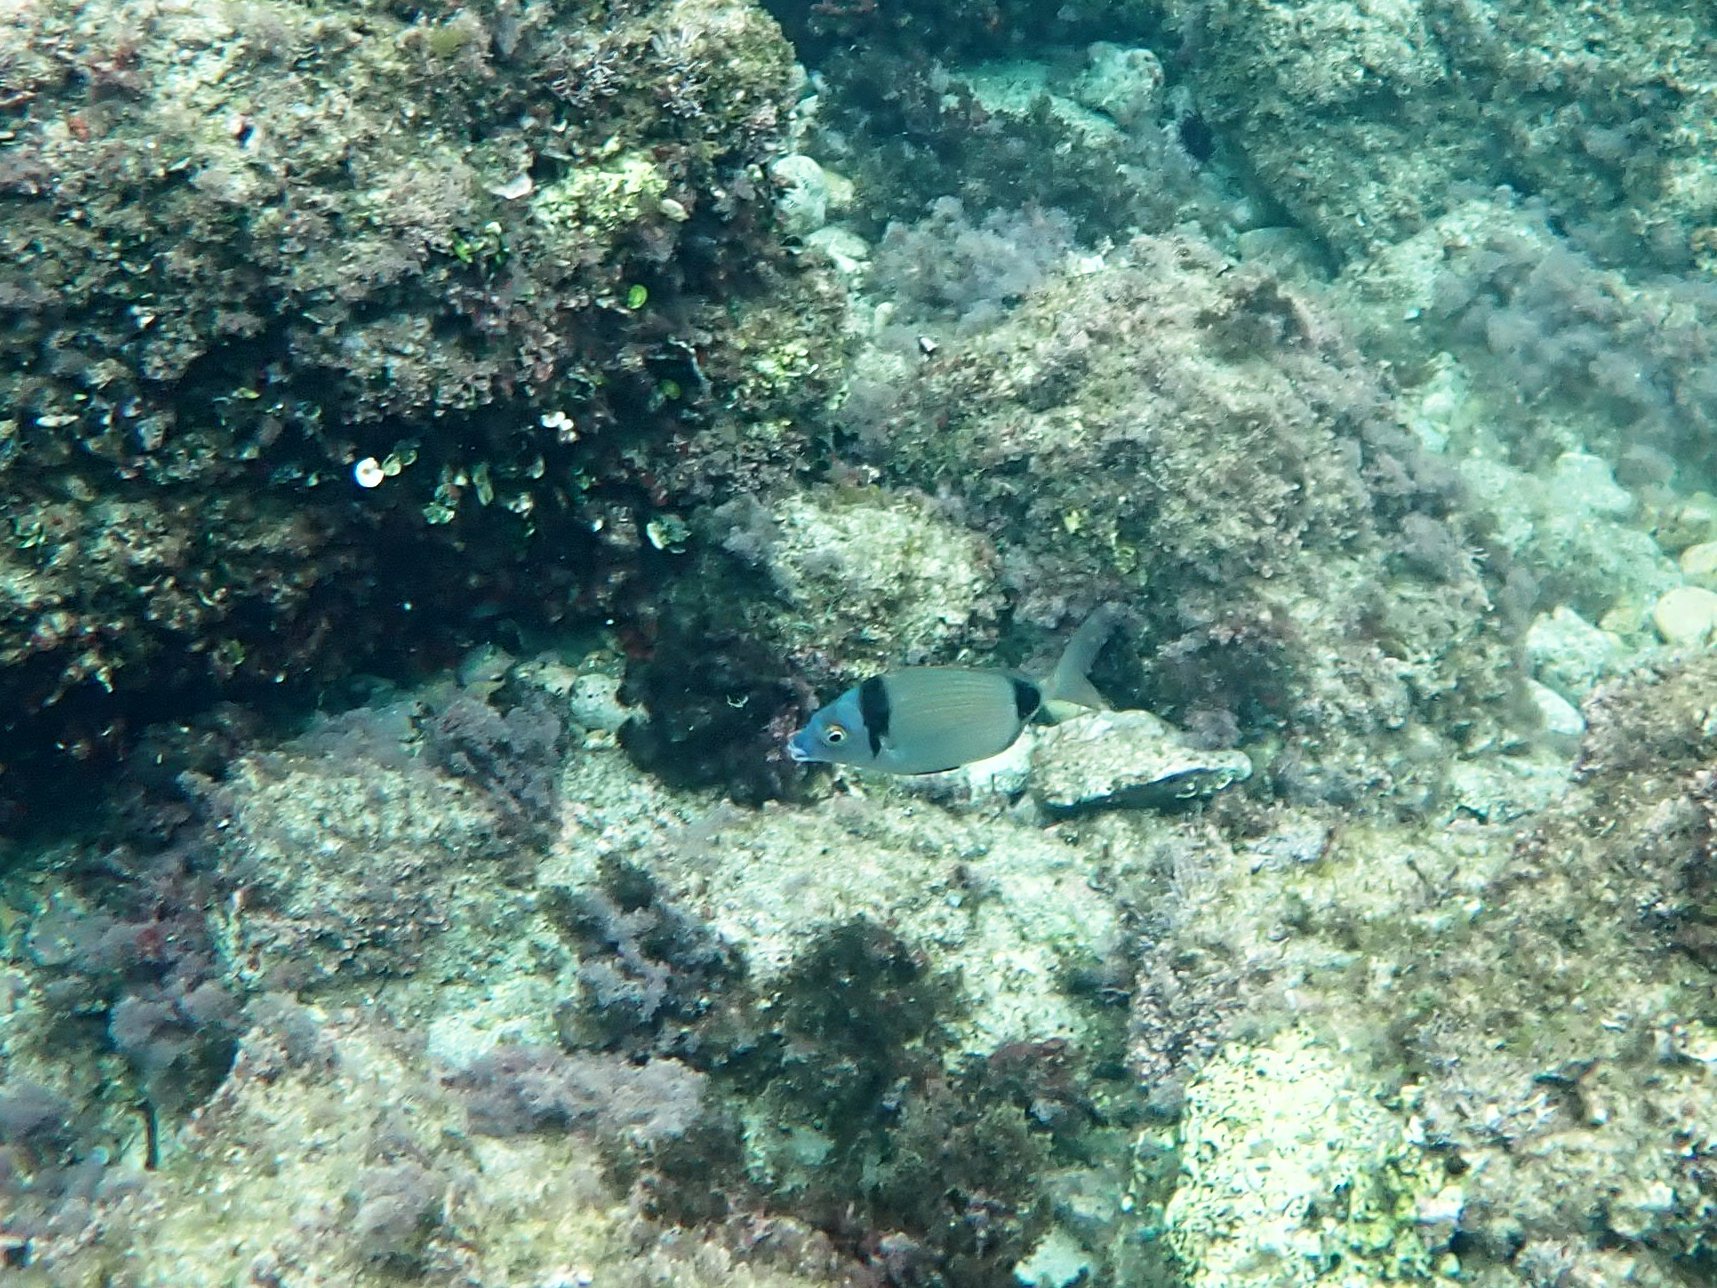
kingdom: Animalia
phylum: Chordata
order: Perciformes
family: Sparidae
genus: Diplodus
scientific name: Diplodus vulgaris
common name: Common two-banded seabream
